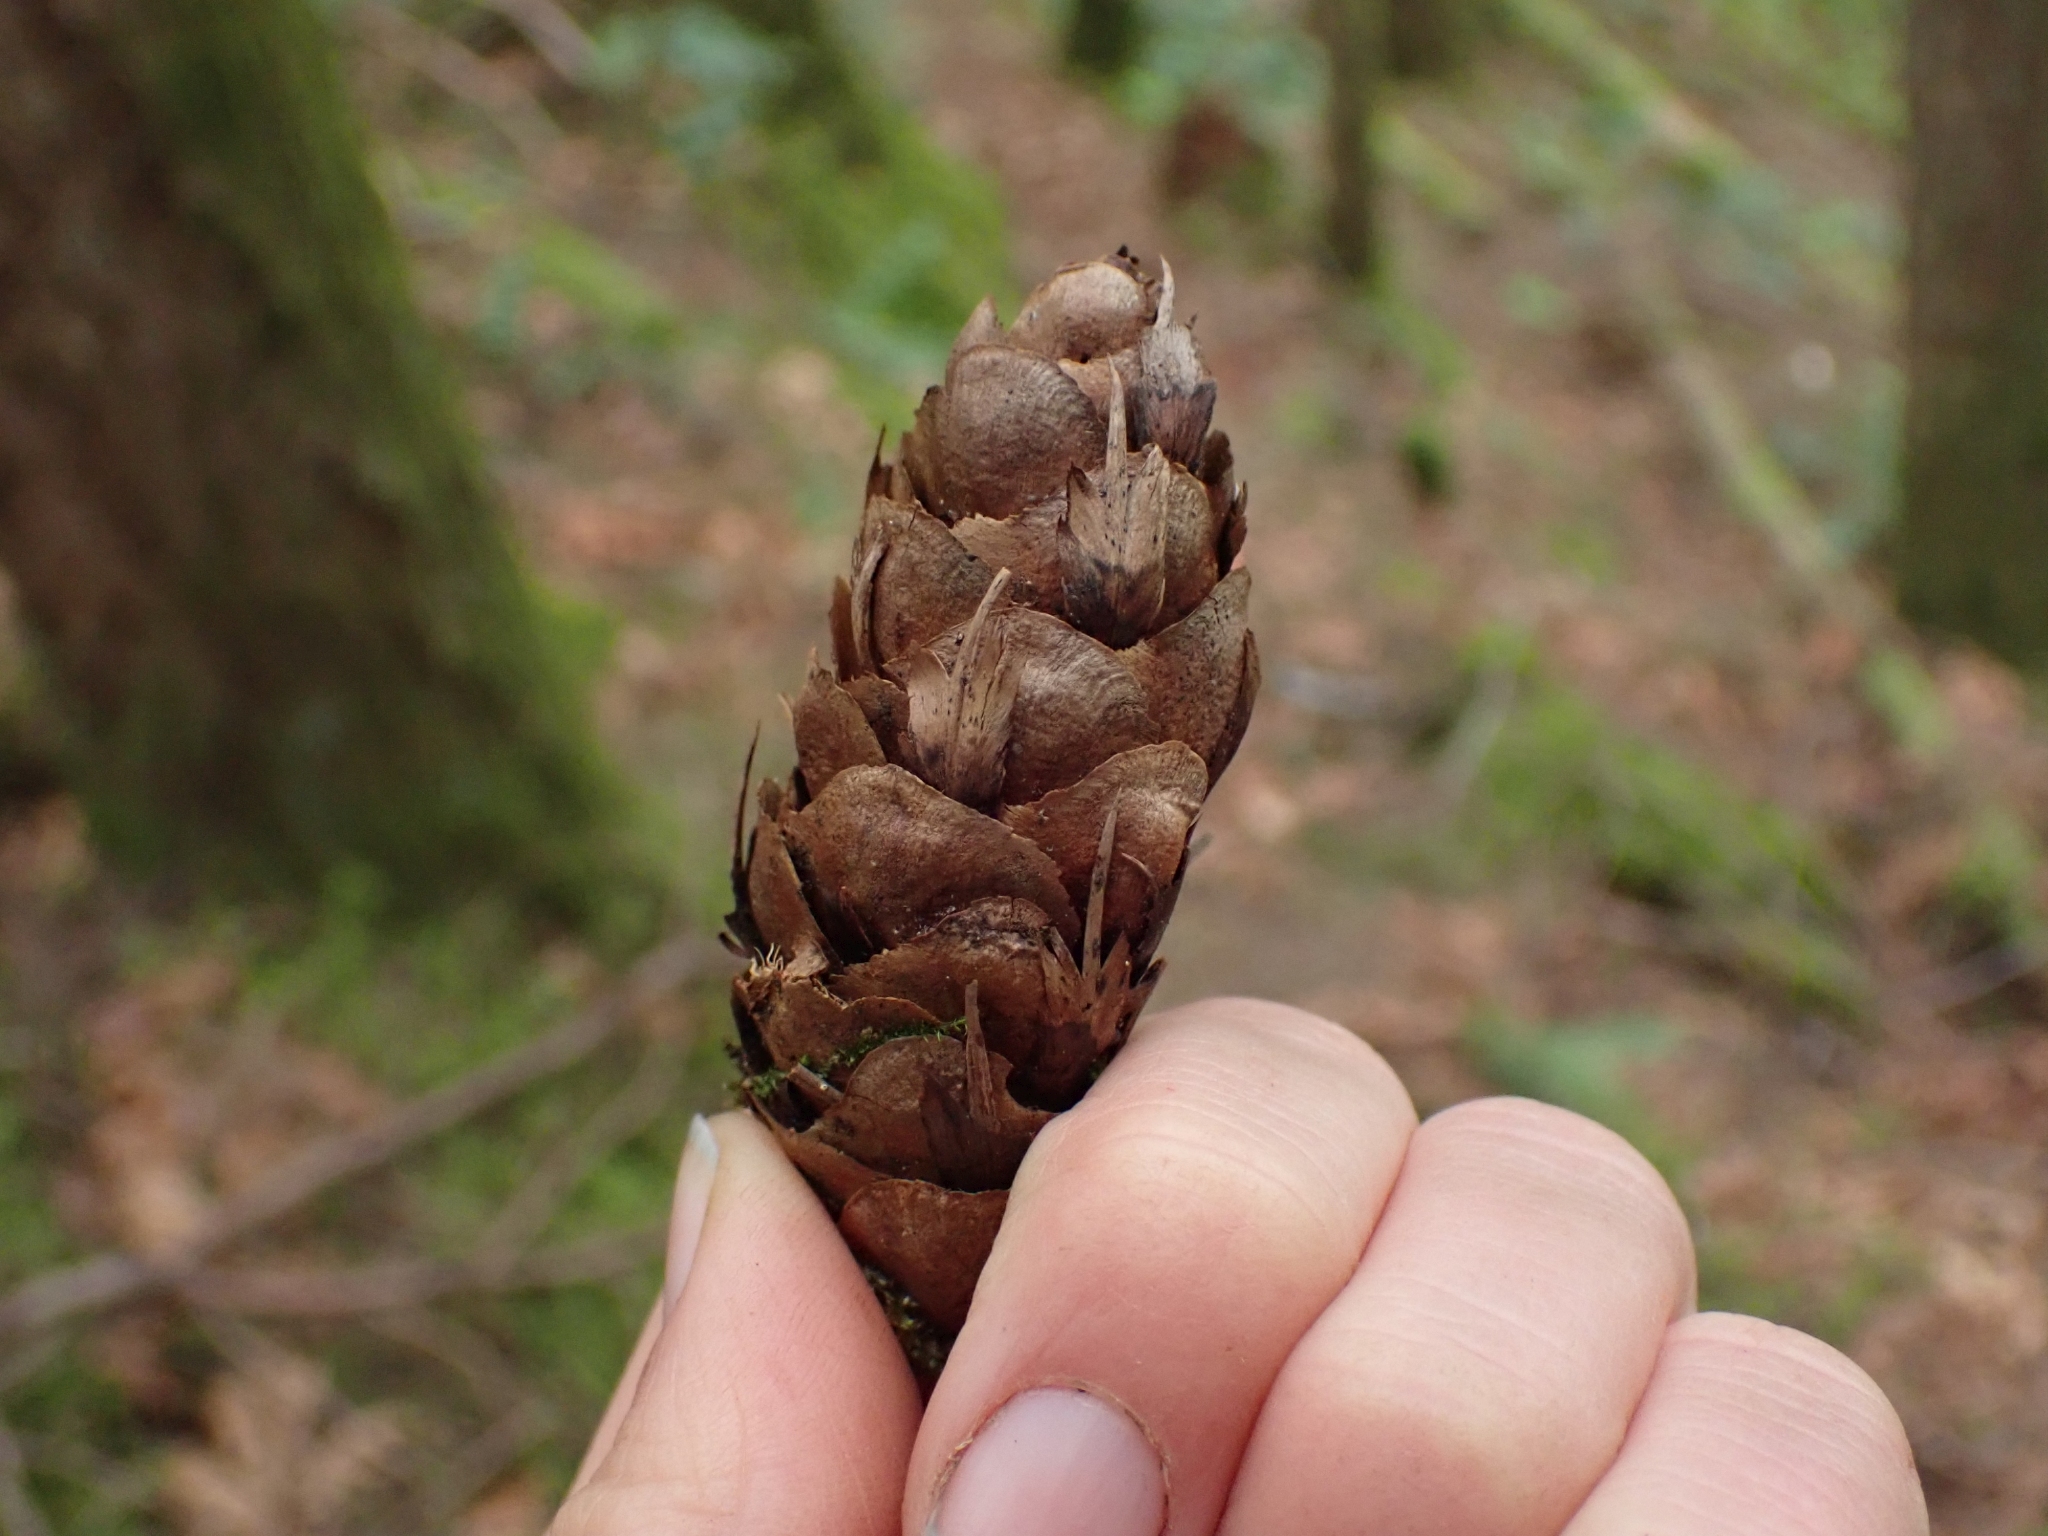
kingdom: Plantae
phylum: Tracheophyta
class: Pinopsida
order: Pinales
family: Pinaceae
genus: Pseudotsuga
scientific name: Pseudotsuga menziesii
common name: Douglas fir
